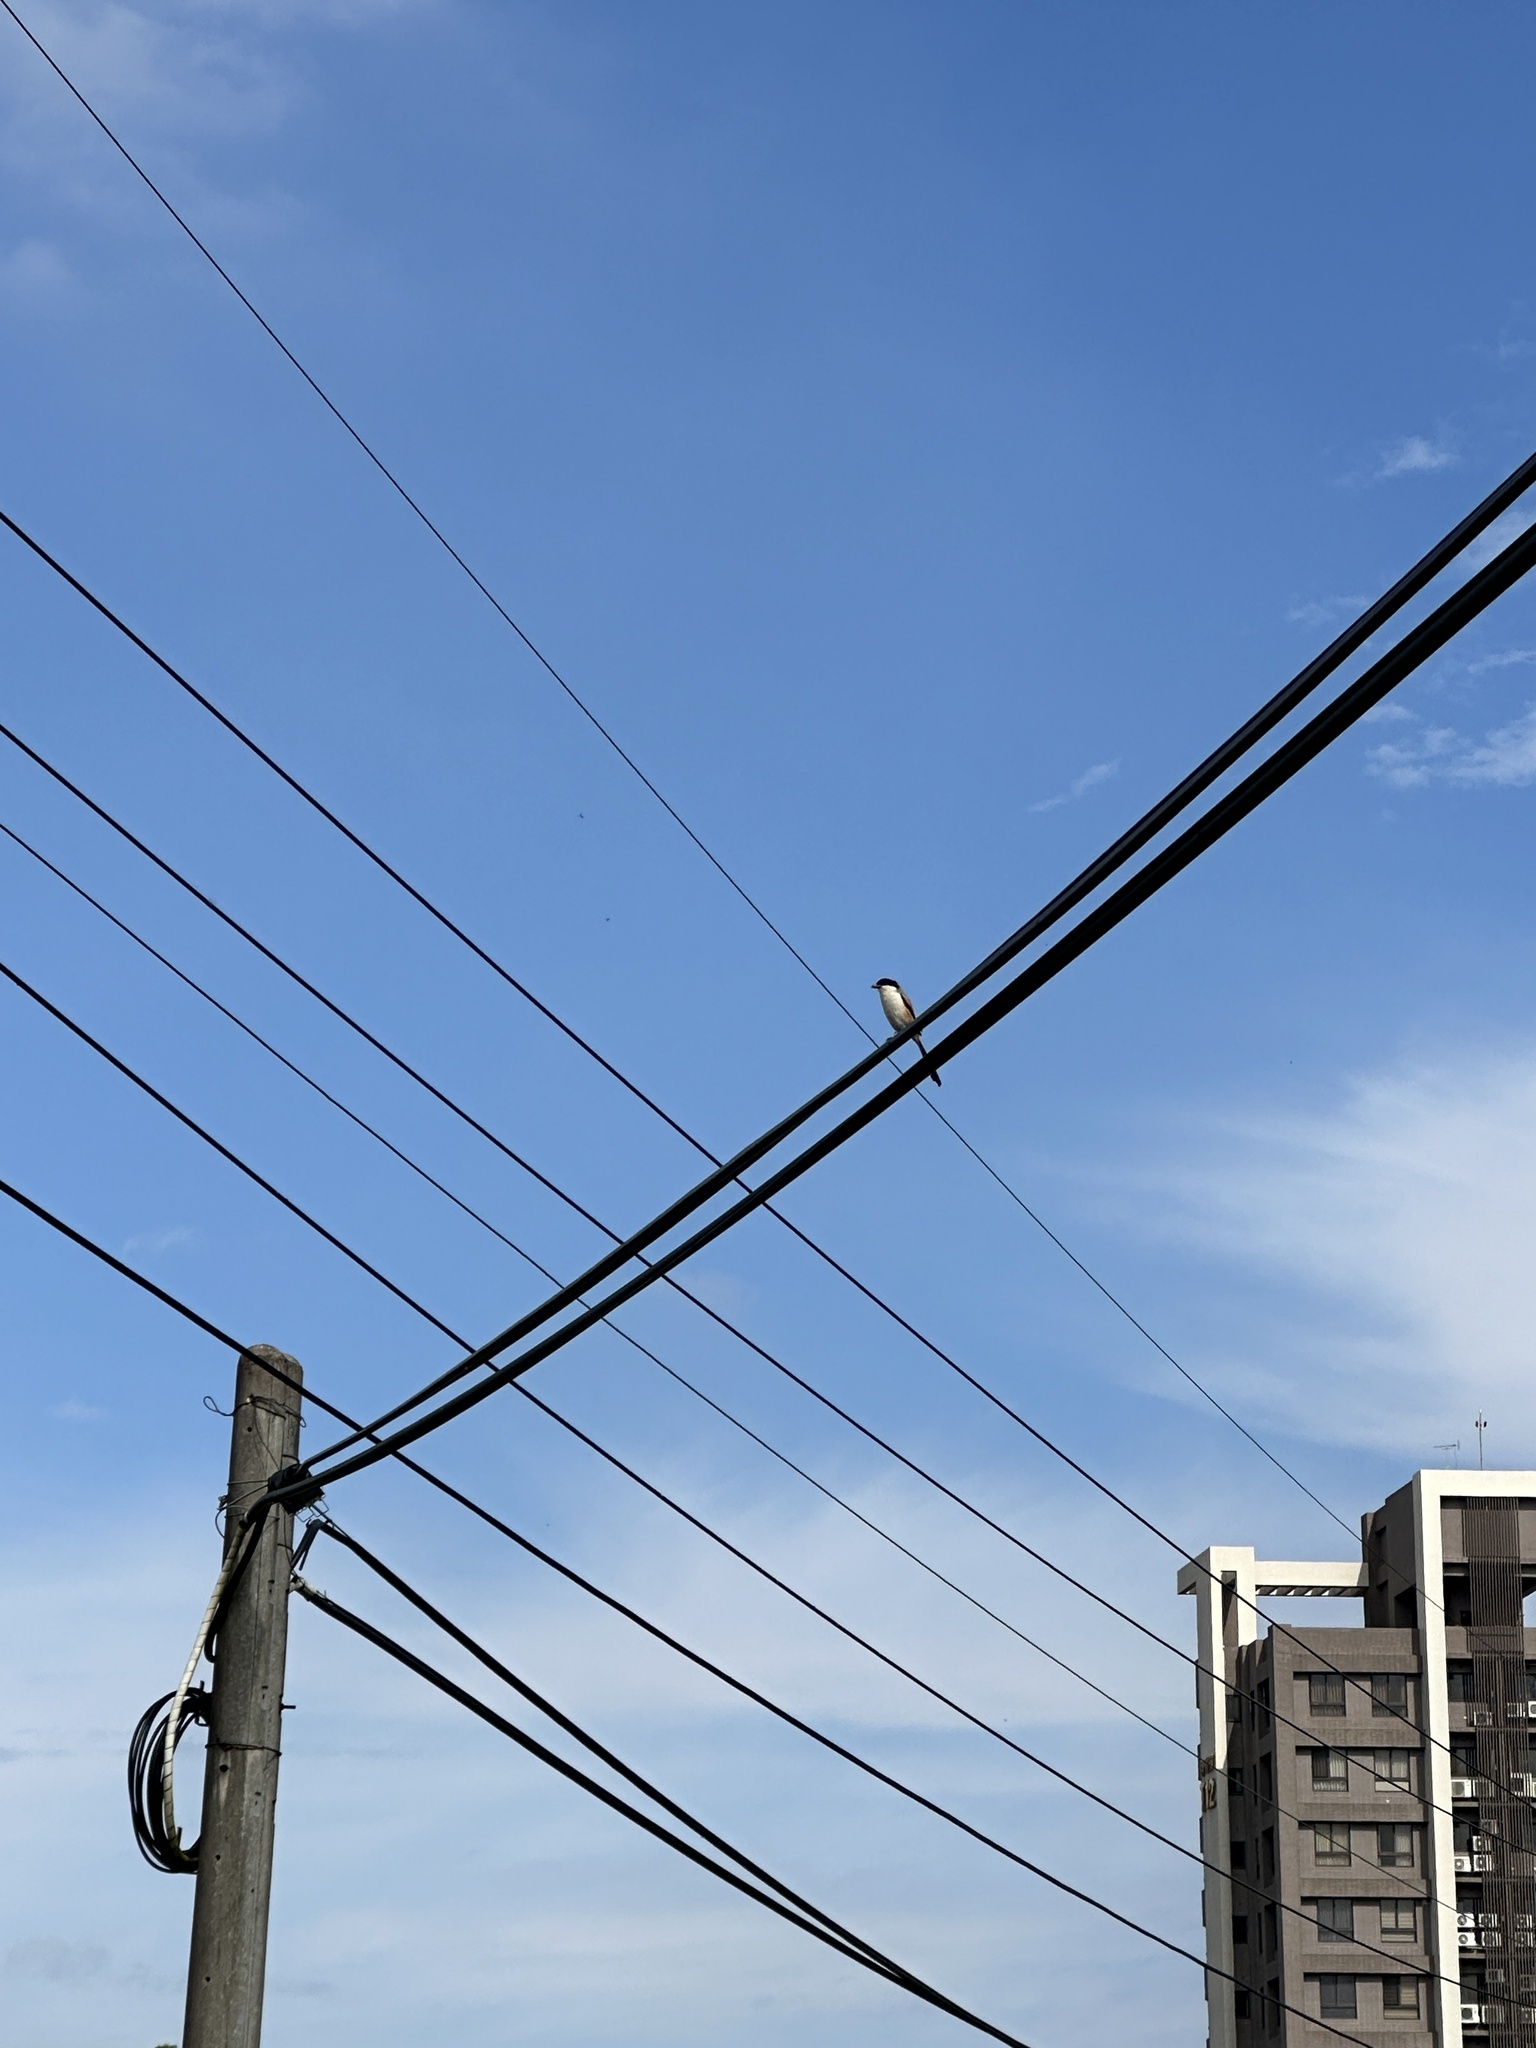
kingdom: Animalia
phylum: Chordata
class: Aves
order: Passeriformes
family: Laniidae
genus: Lanius
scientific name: Lanius schach
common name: Long-tailed shrike
